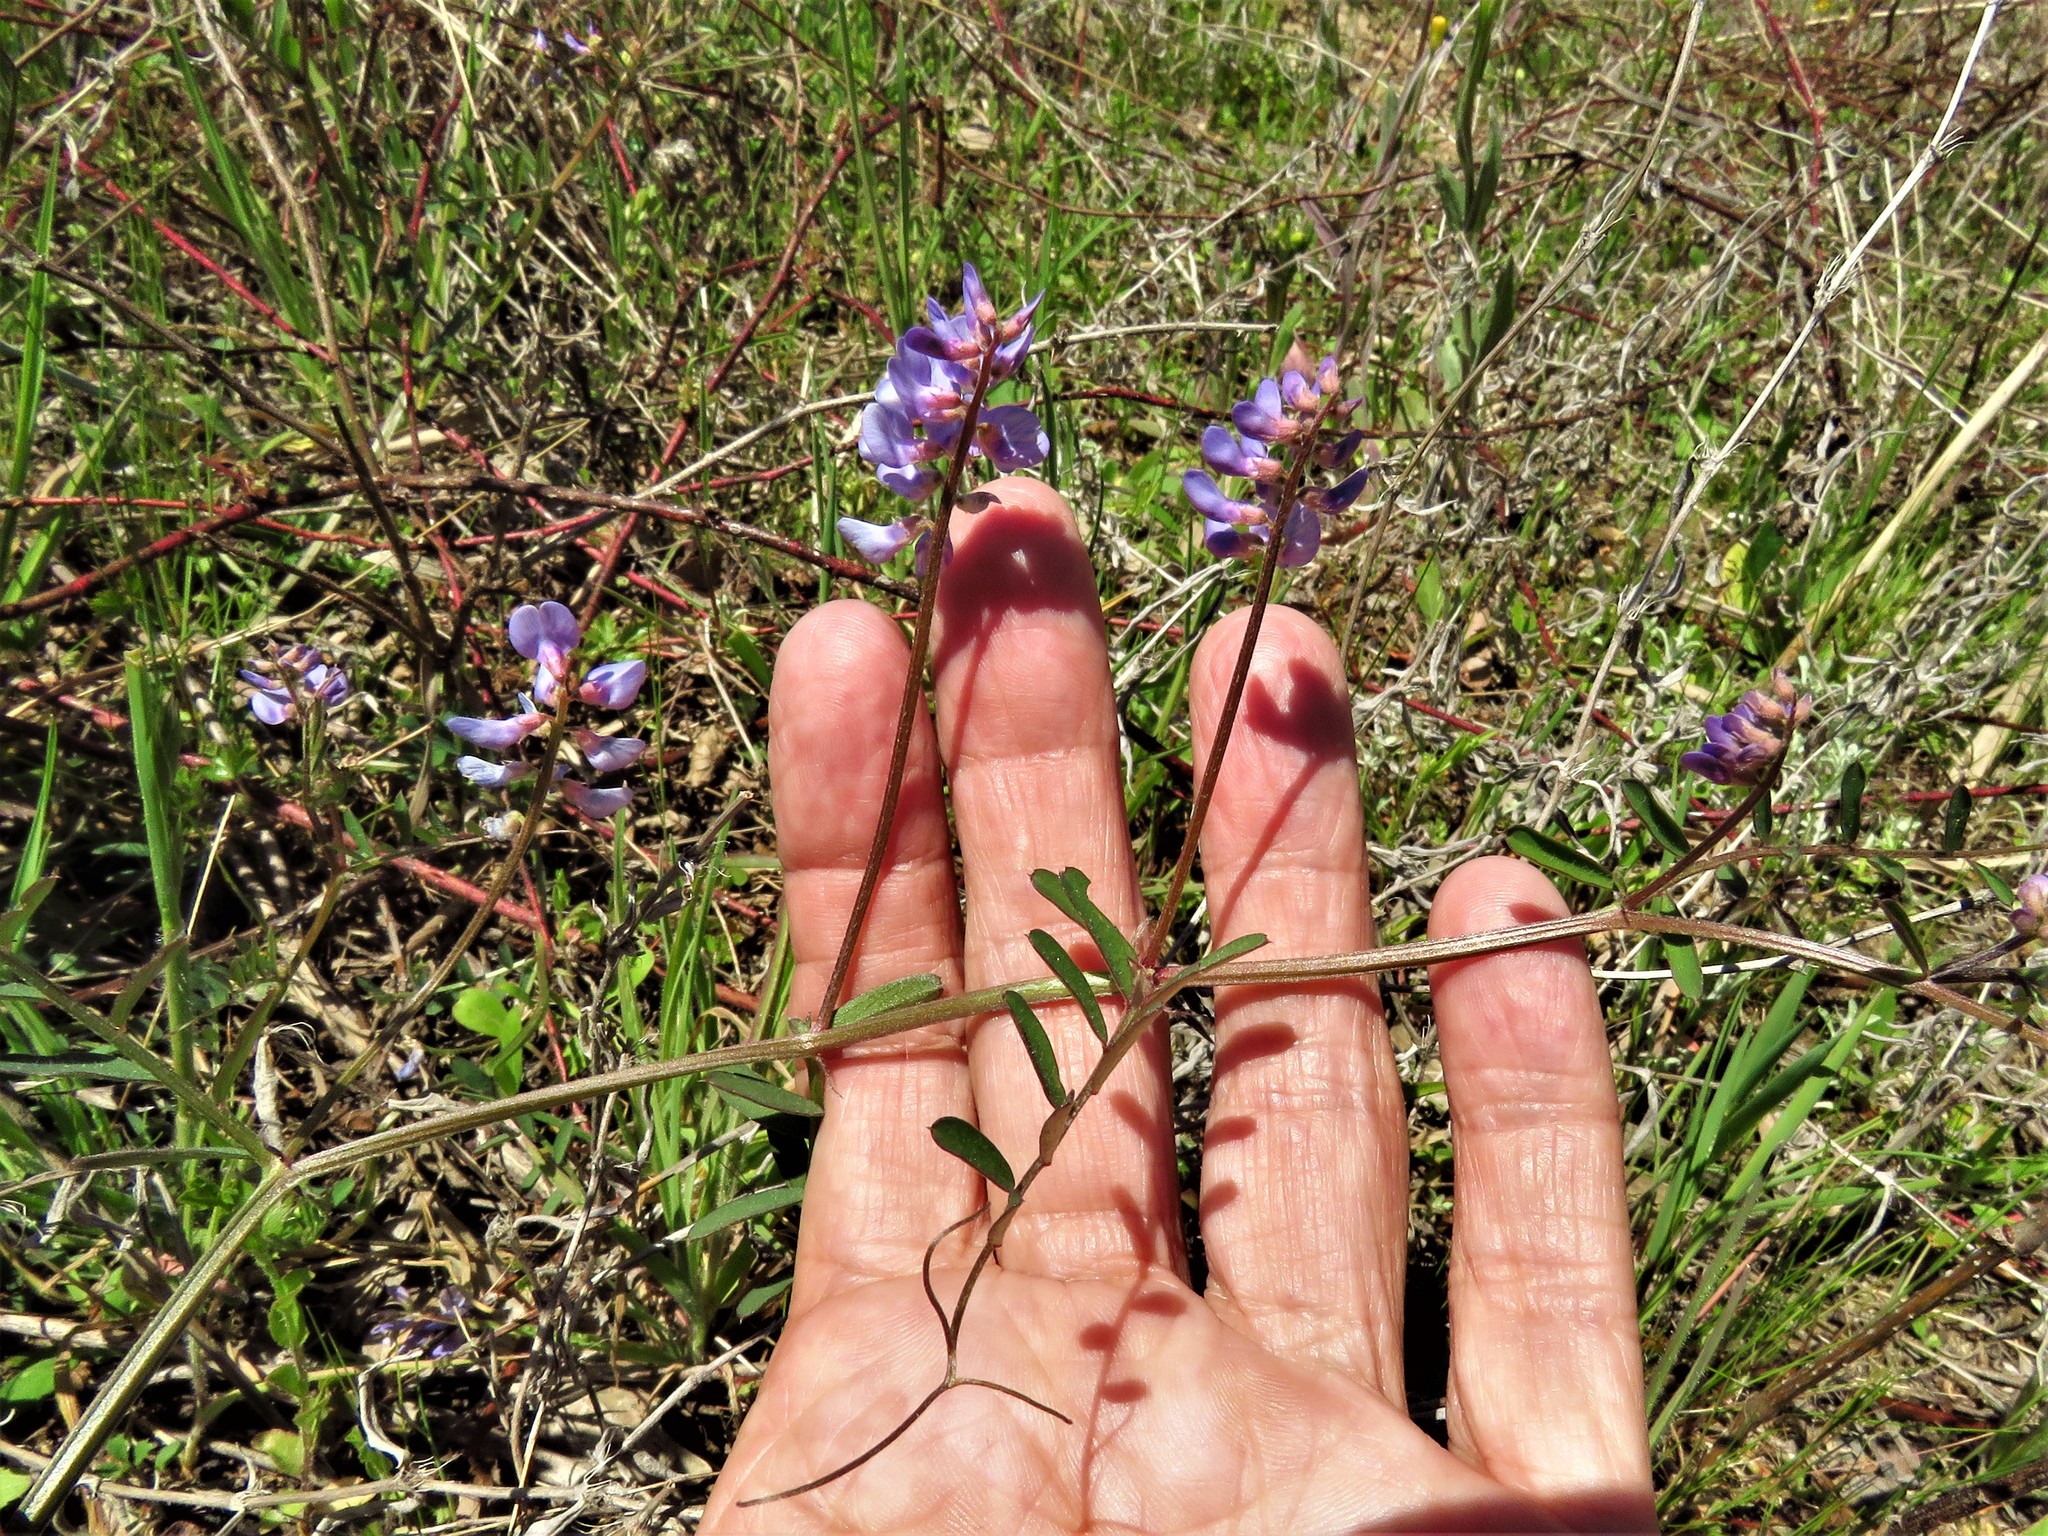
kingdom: Plantae
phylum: Tracheophyta
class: Magnoliopsida
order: Fabales
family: Fabaceae
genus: Vicia
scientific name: Vicia ludoviciana
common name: Louisiana vetch
